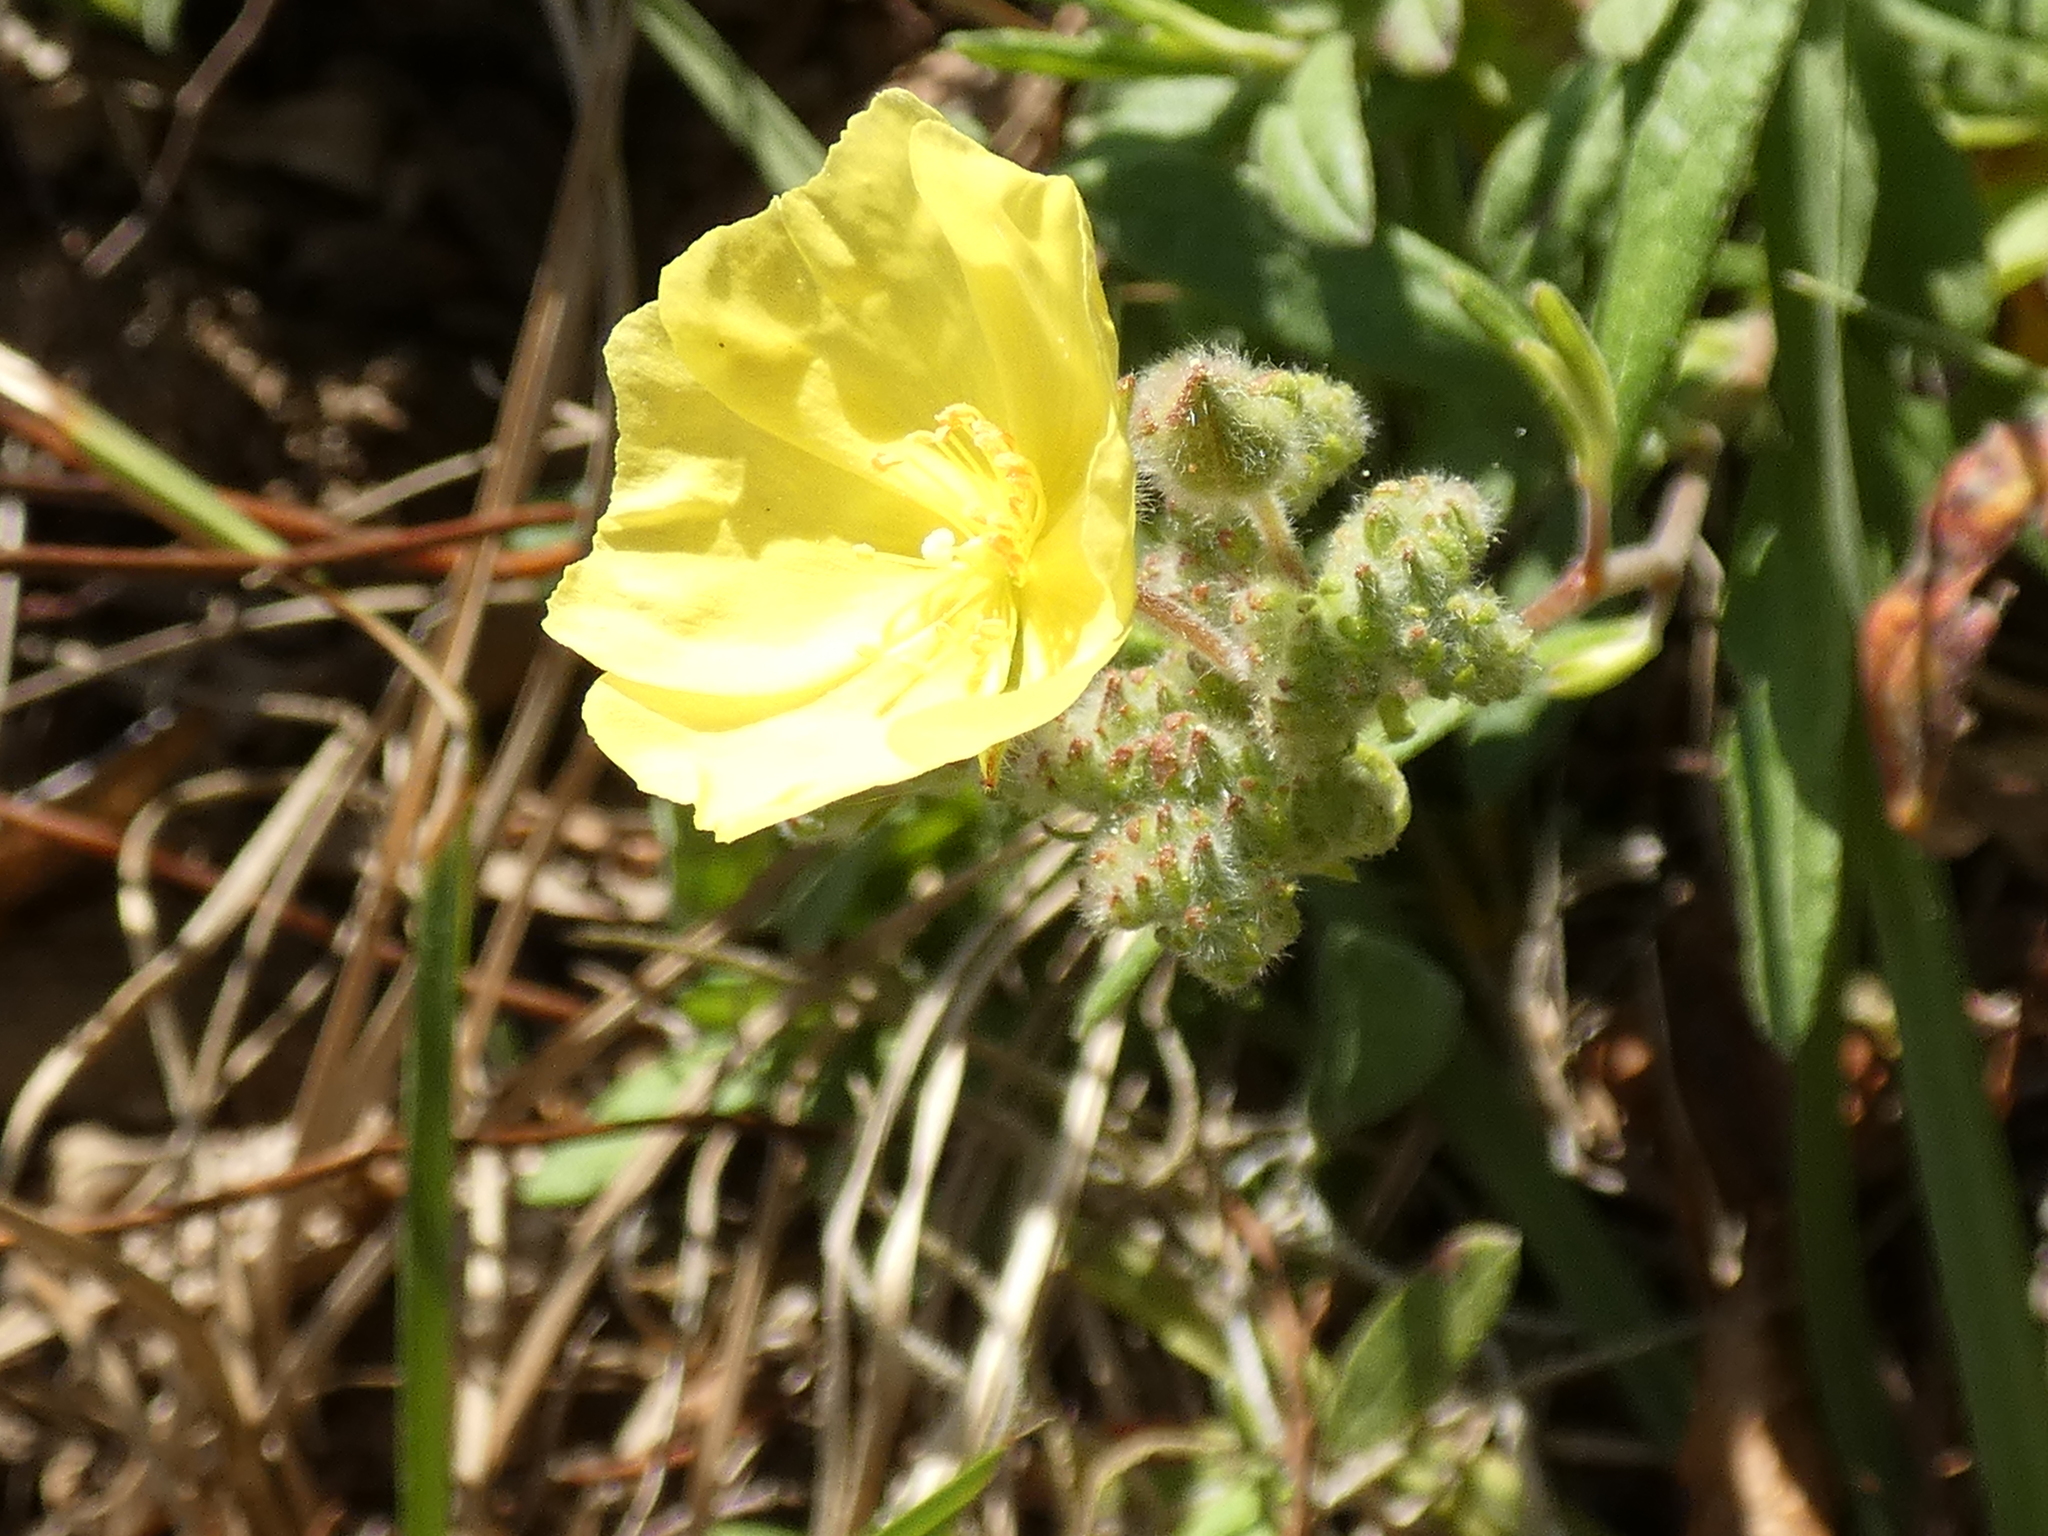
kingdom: Plantae
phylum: Tracheophyta
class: Magnoliopsida
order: Malvales
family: Cistaceae
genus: Crocanthemum
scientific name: Crocanthemum corymbosum
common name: Pinebarren sun-rose
